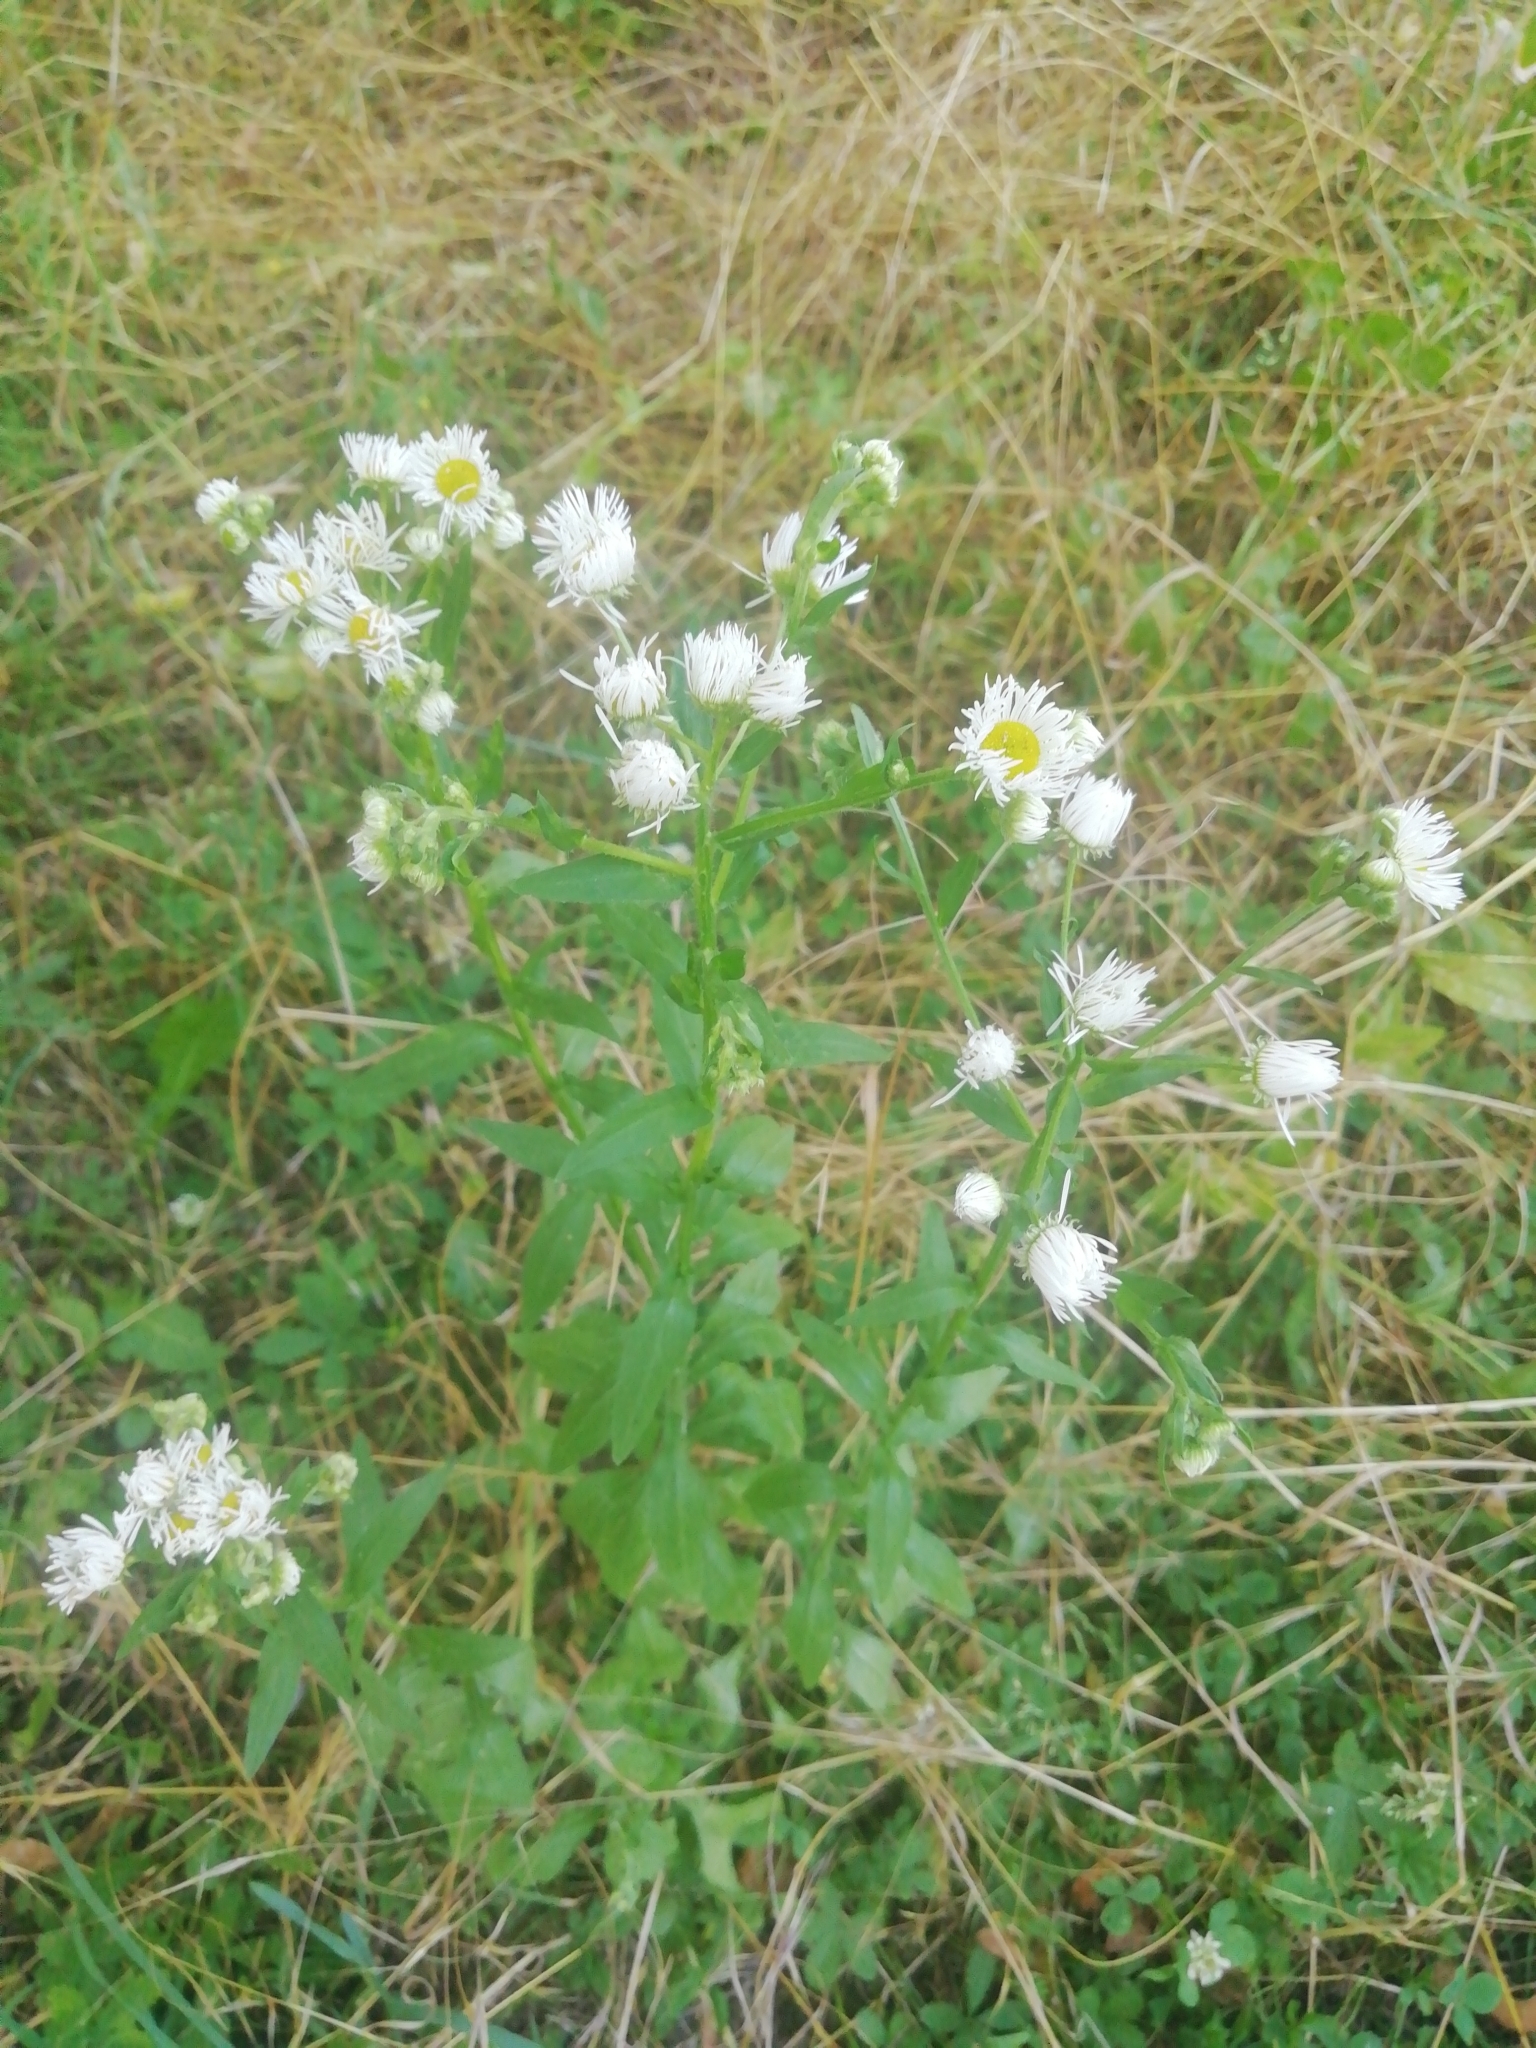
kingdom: Plantae
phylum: Tracheophyta
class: Magnoliopsida
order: Asterales
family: Asteraceae
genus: Erigeron
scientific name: Erigeron annuus
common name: Tall fleabane
